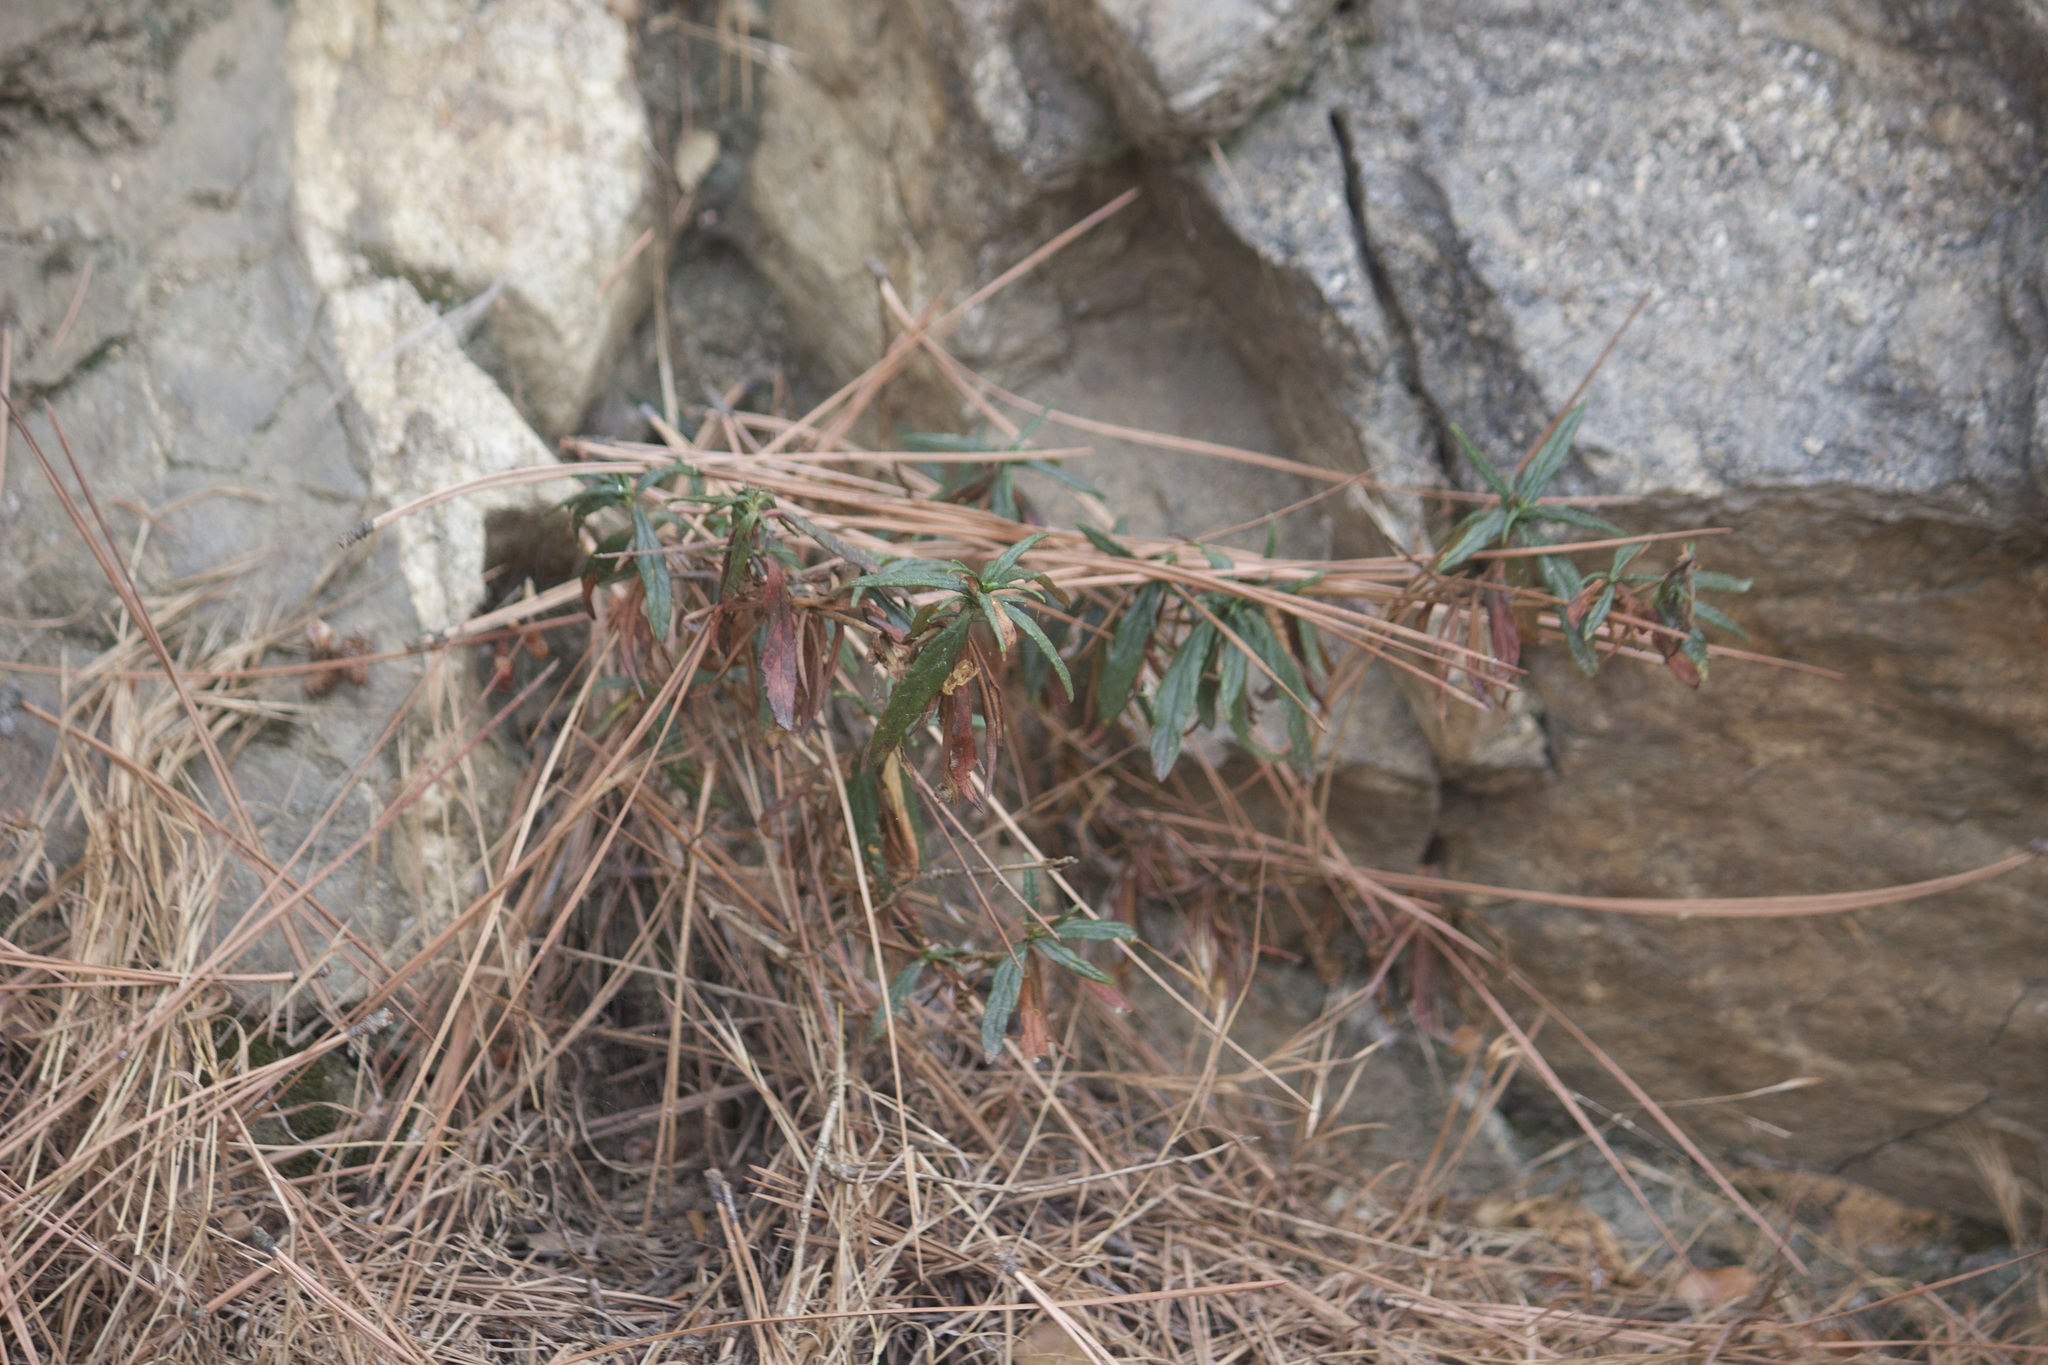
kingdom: Plantae
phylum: Tracheophyta
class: Magnoliopsida
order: Myrtales
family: Onagraceae
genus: Epilobium
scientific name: Epilobium canum
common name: California-fuchsia
